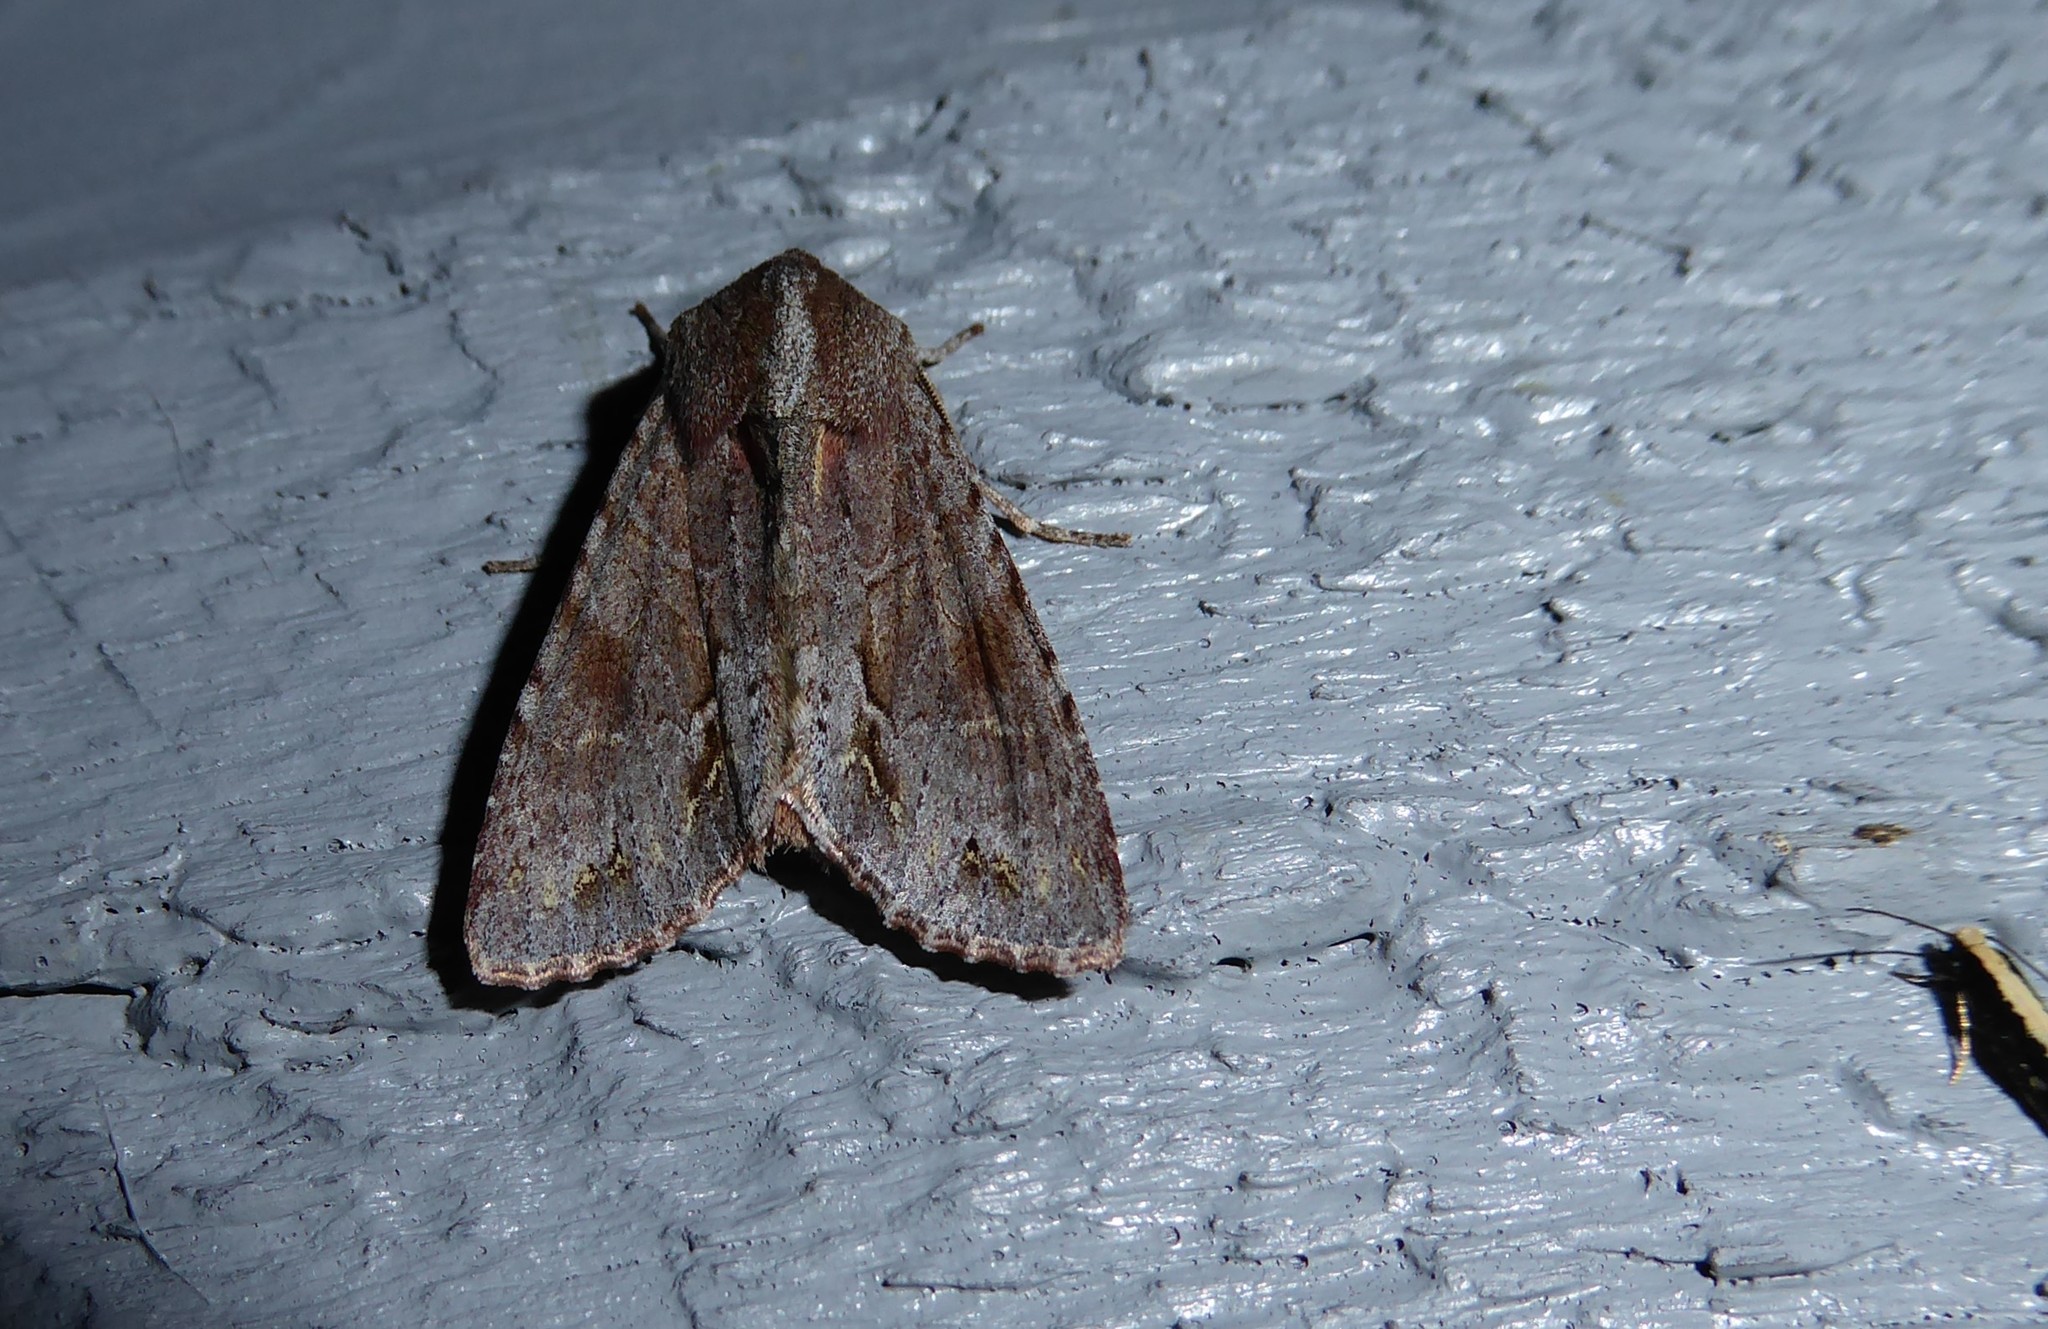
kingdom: Animalia
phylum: Arthropoda
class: Insecta
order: Lepidoptera
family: Noctuidae
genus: Ichneutica
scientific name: Ichneutica
